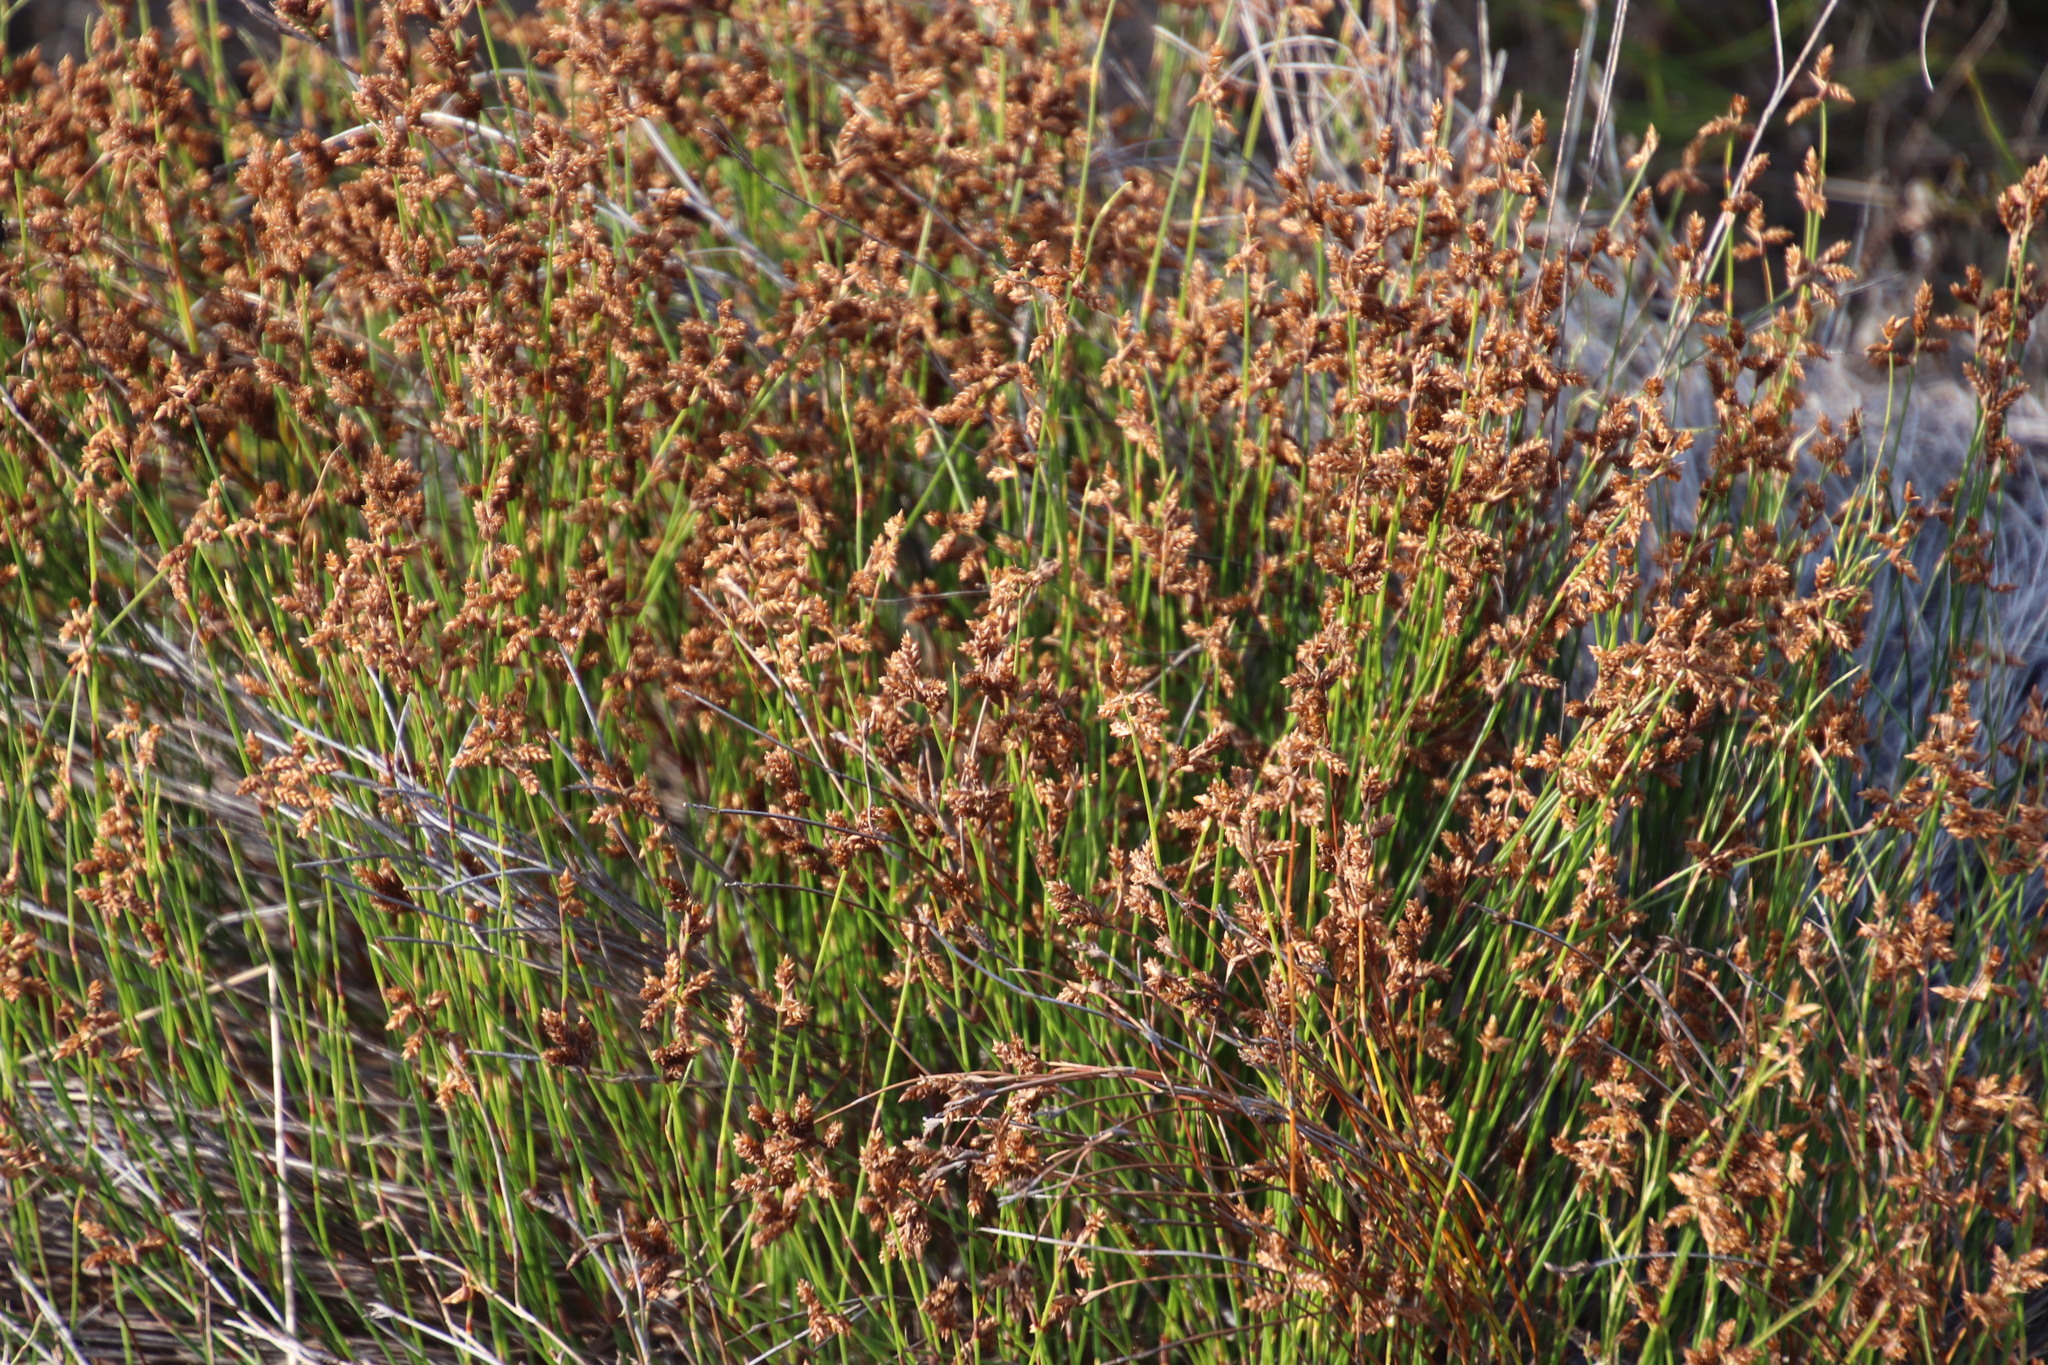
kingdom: Plantae
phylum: Tracheophyta
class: Liliopsida
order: Poales
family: Restionaceae
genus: Mastersiella
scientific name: Mastersiella digitata
